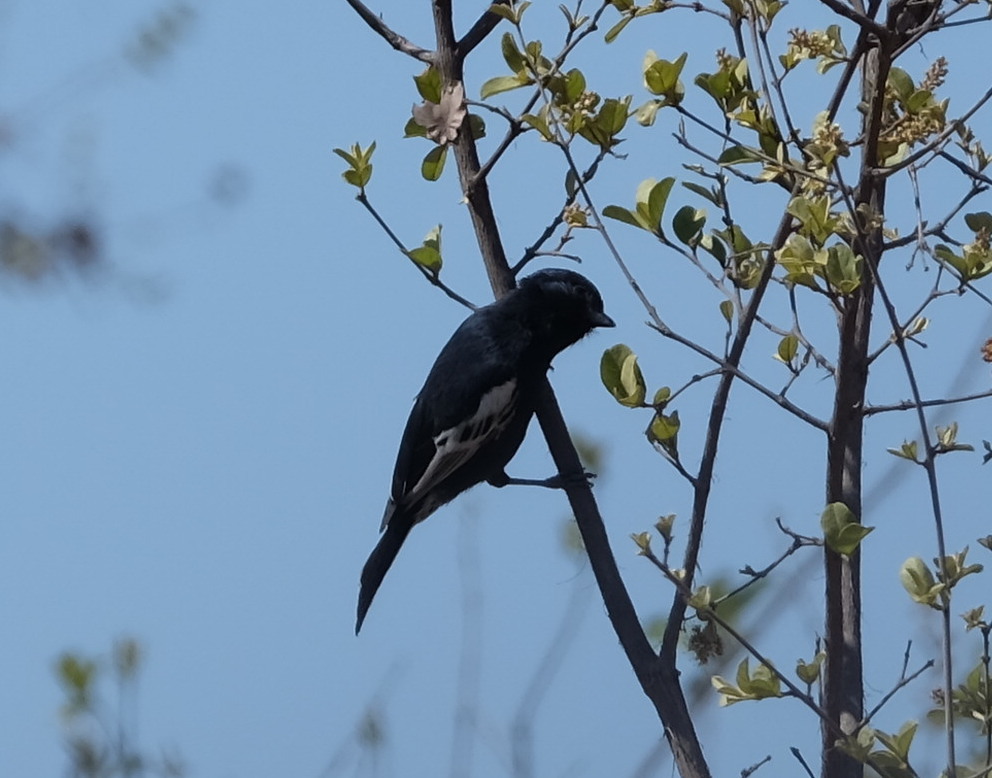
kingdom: Animalia
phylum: Chordata
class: Aves
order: Passeriformes
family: Paridae
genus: Parus
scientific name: Parus niger
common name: Southern black tit
